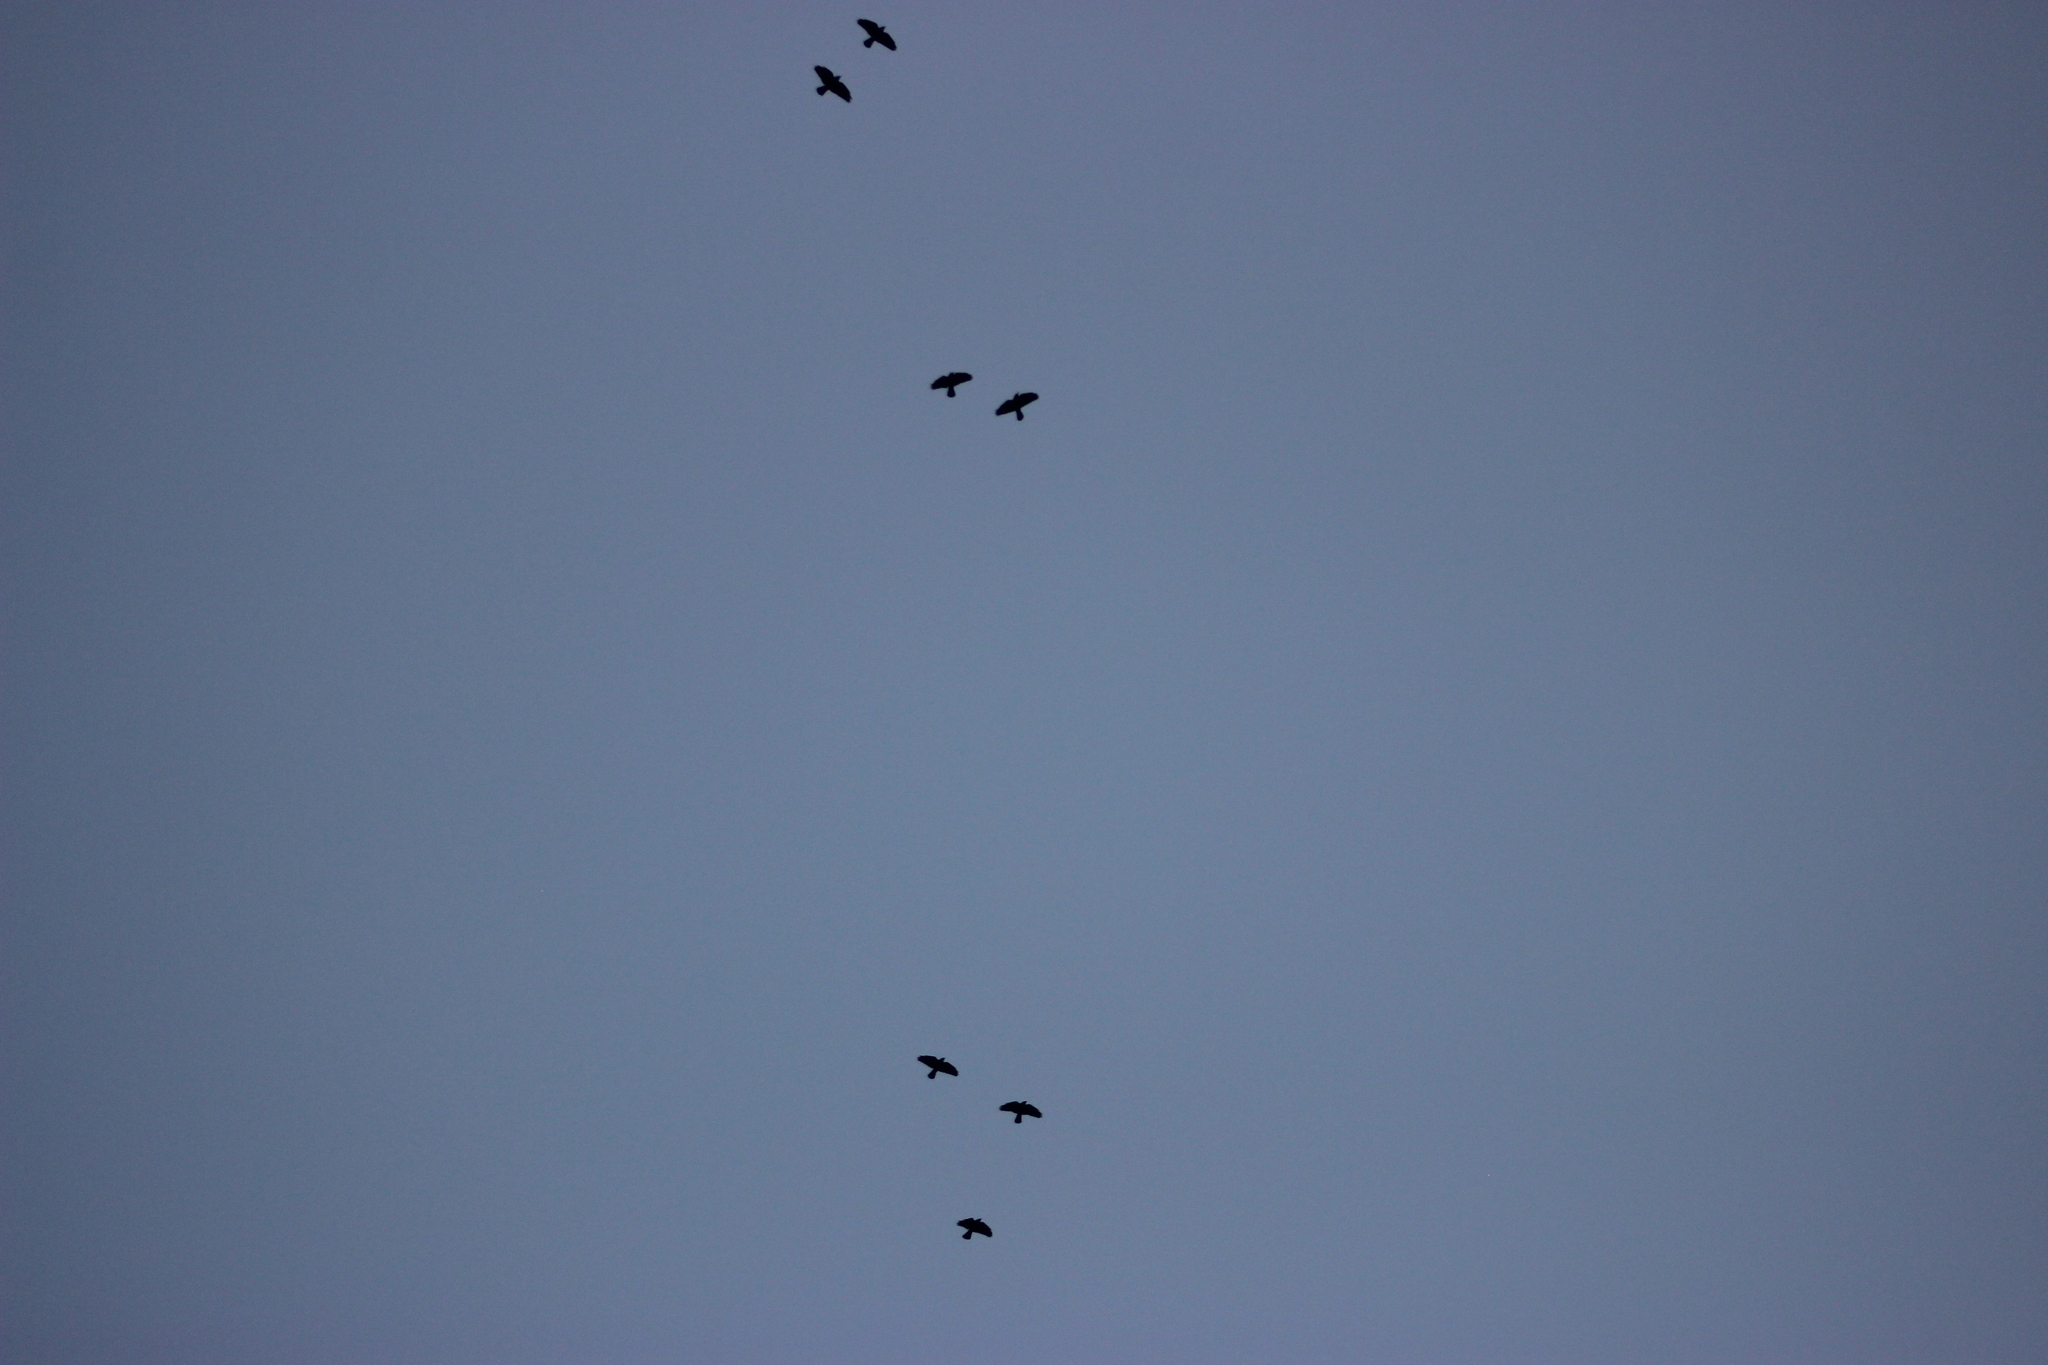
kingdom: Animalia
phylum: Chordata
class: Aves
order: Passeriformes
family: Corvidae
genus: Coloeus
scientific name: Coloeus monedula
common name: Western jackdaw
